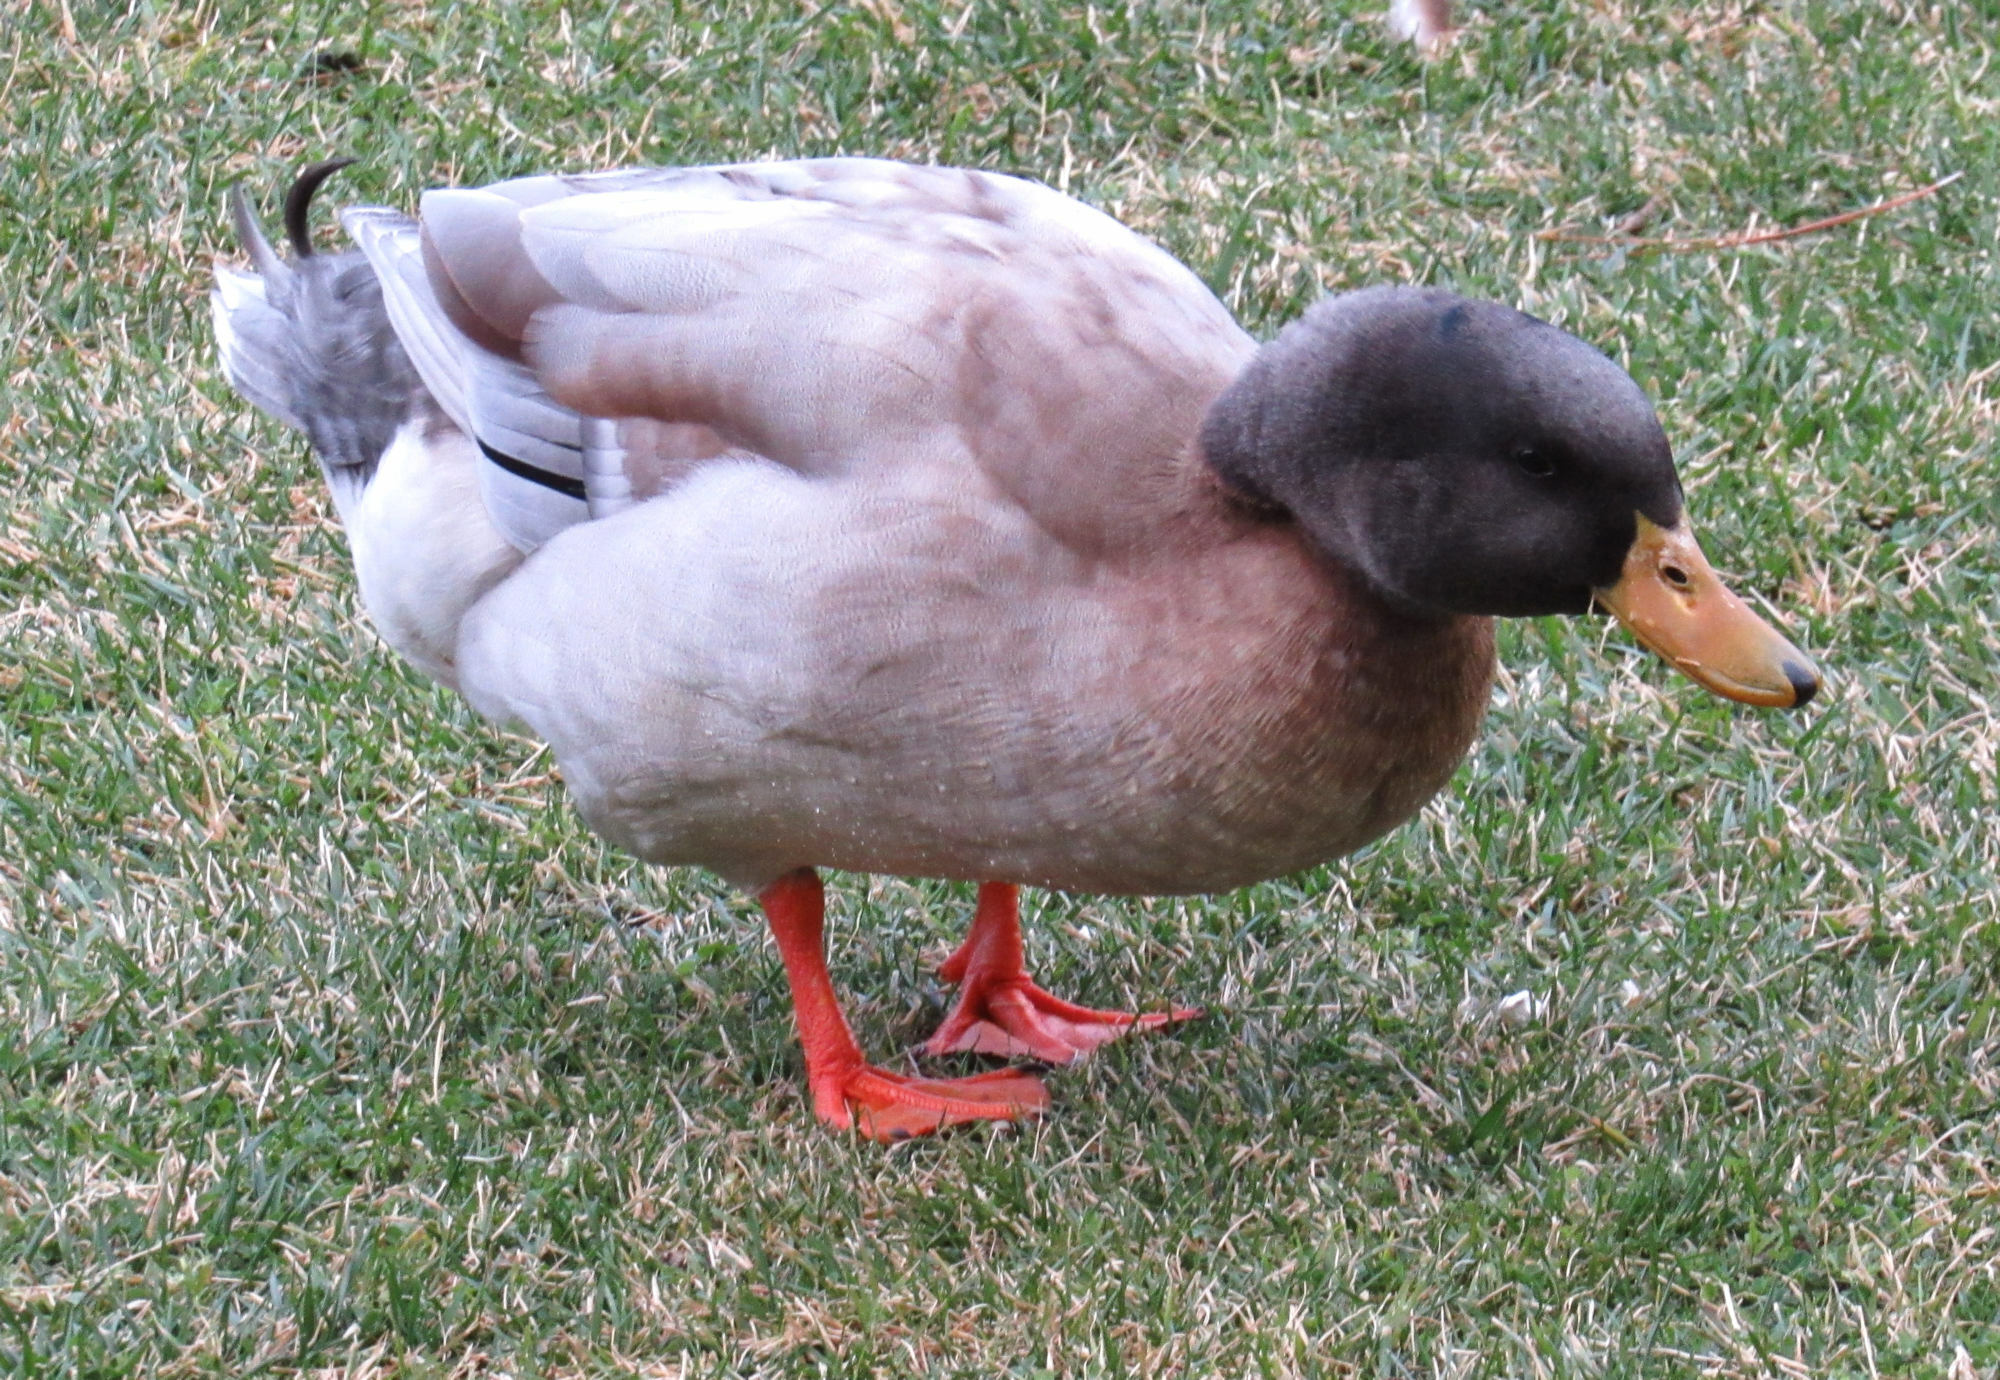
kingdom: Animalia
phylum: Chordata
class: Aves
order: Anseriformes
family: Anatidae
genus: Anas
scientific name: Anas platyrhynchos
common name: Mallard
